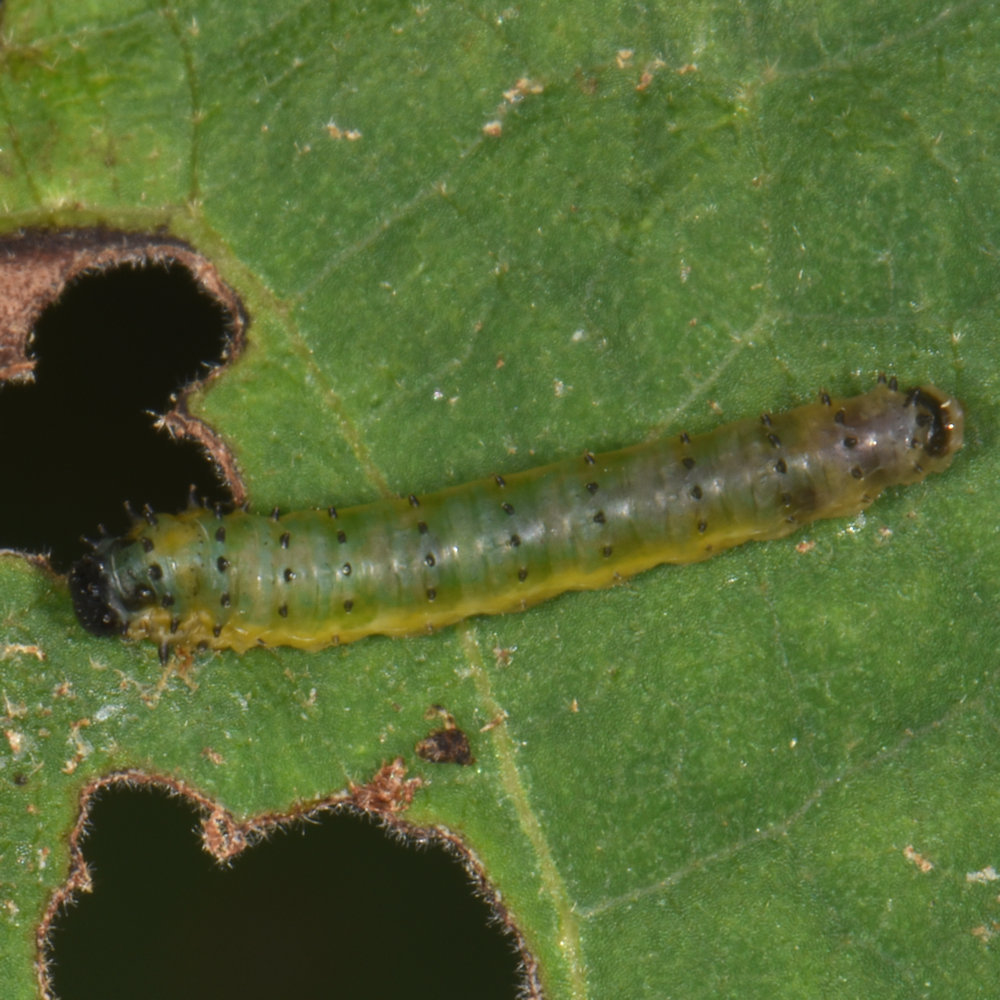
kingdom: Animalia
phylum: Arthropoda
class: Insecta
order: Hymenoptera
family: Argidae
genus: Atomacera
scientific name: Atomacera
